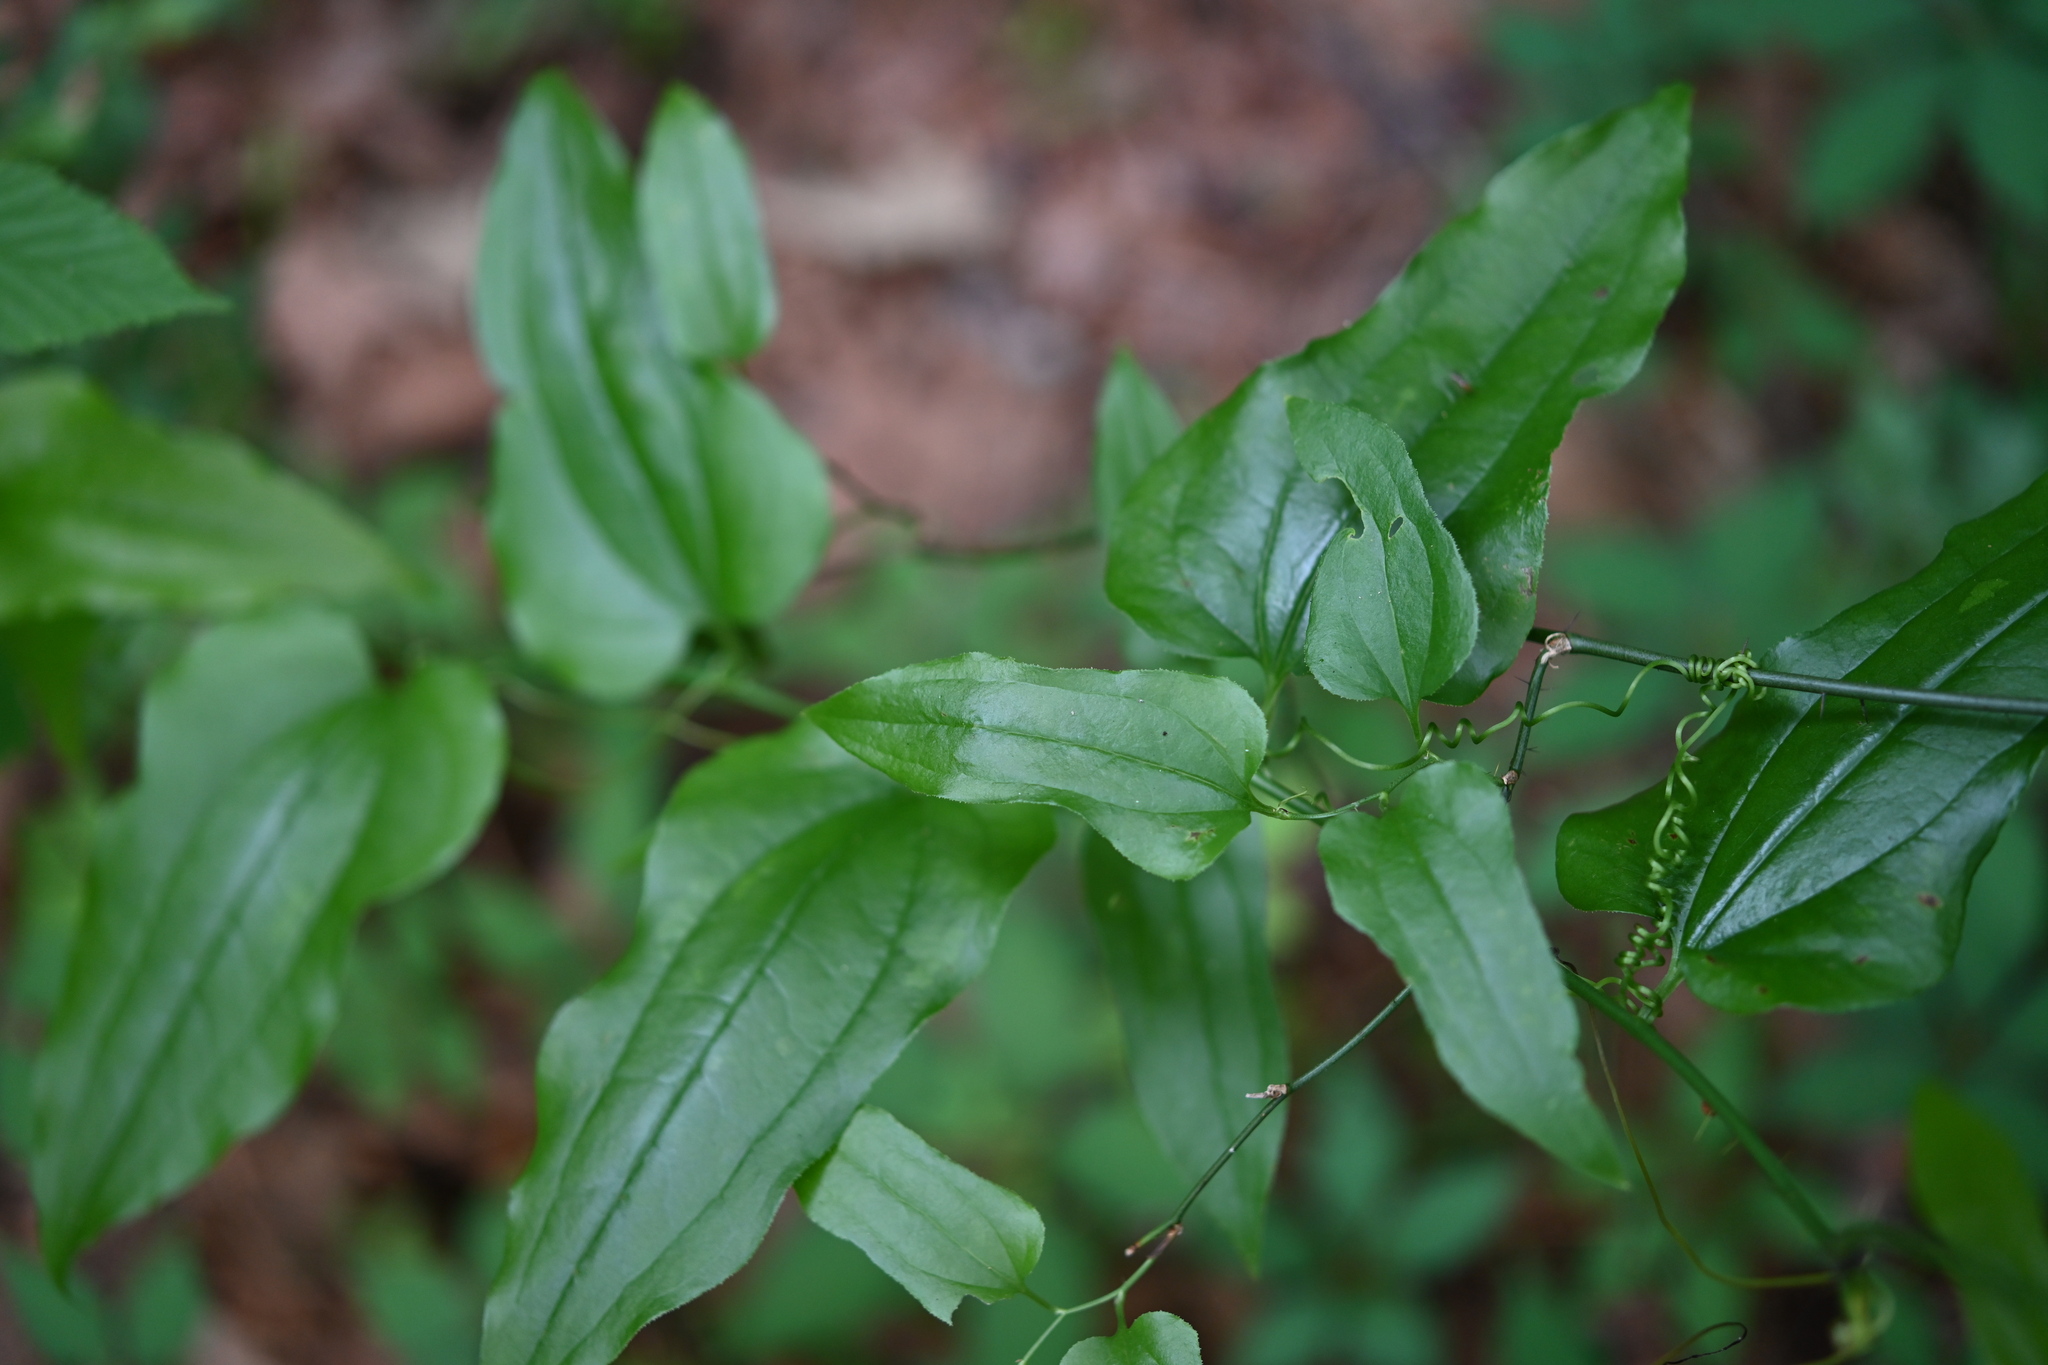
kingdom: Plantae
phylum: Tracheophyta
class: Liliopsida
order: Liliales
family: Smilacaceae
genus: Smilax
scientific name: Smilax tamnoides
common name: Hellfetter
